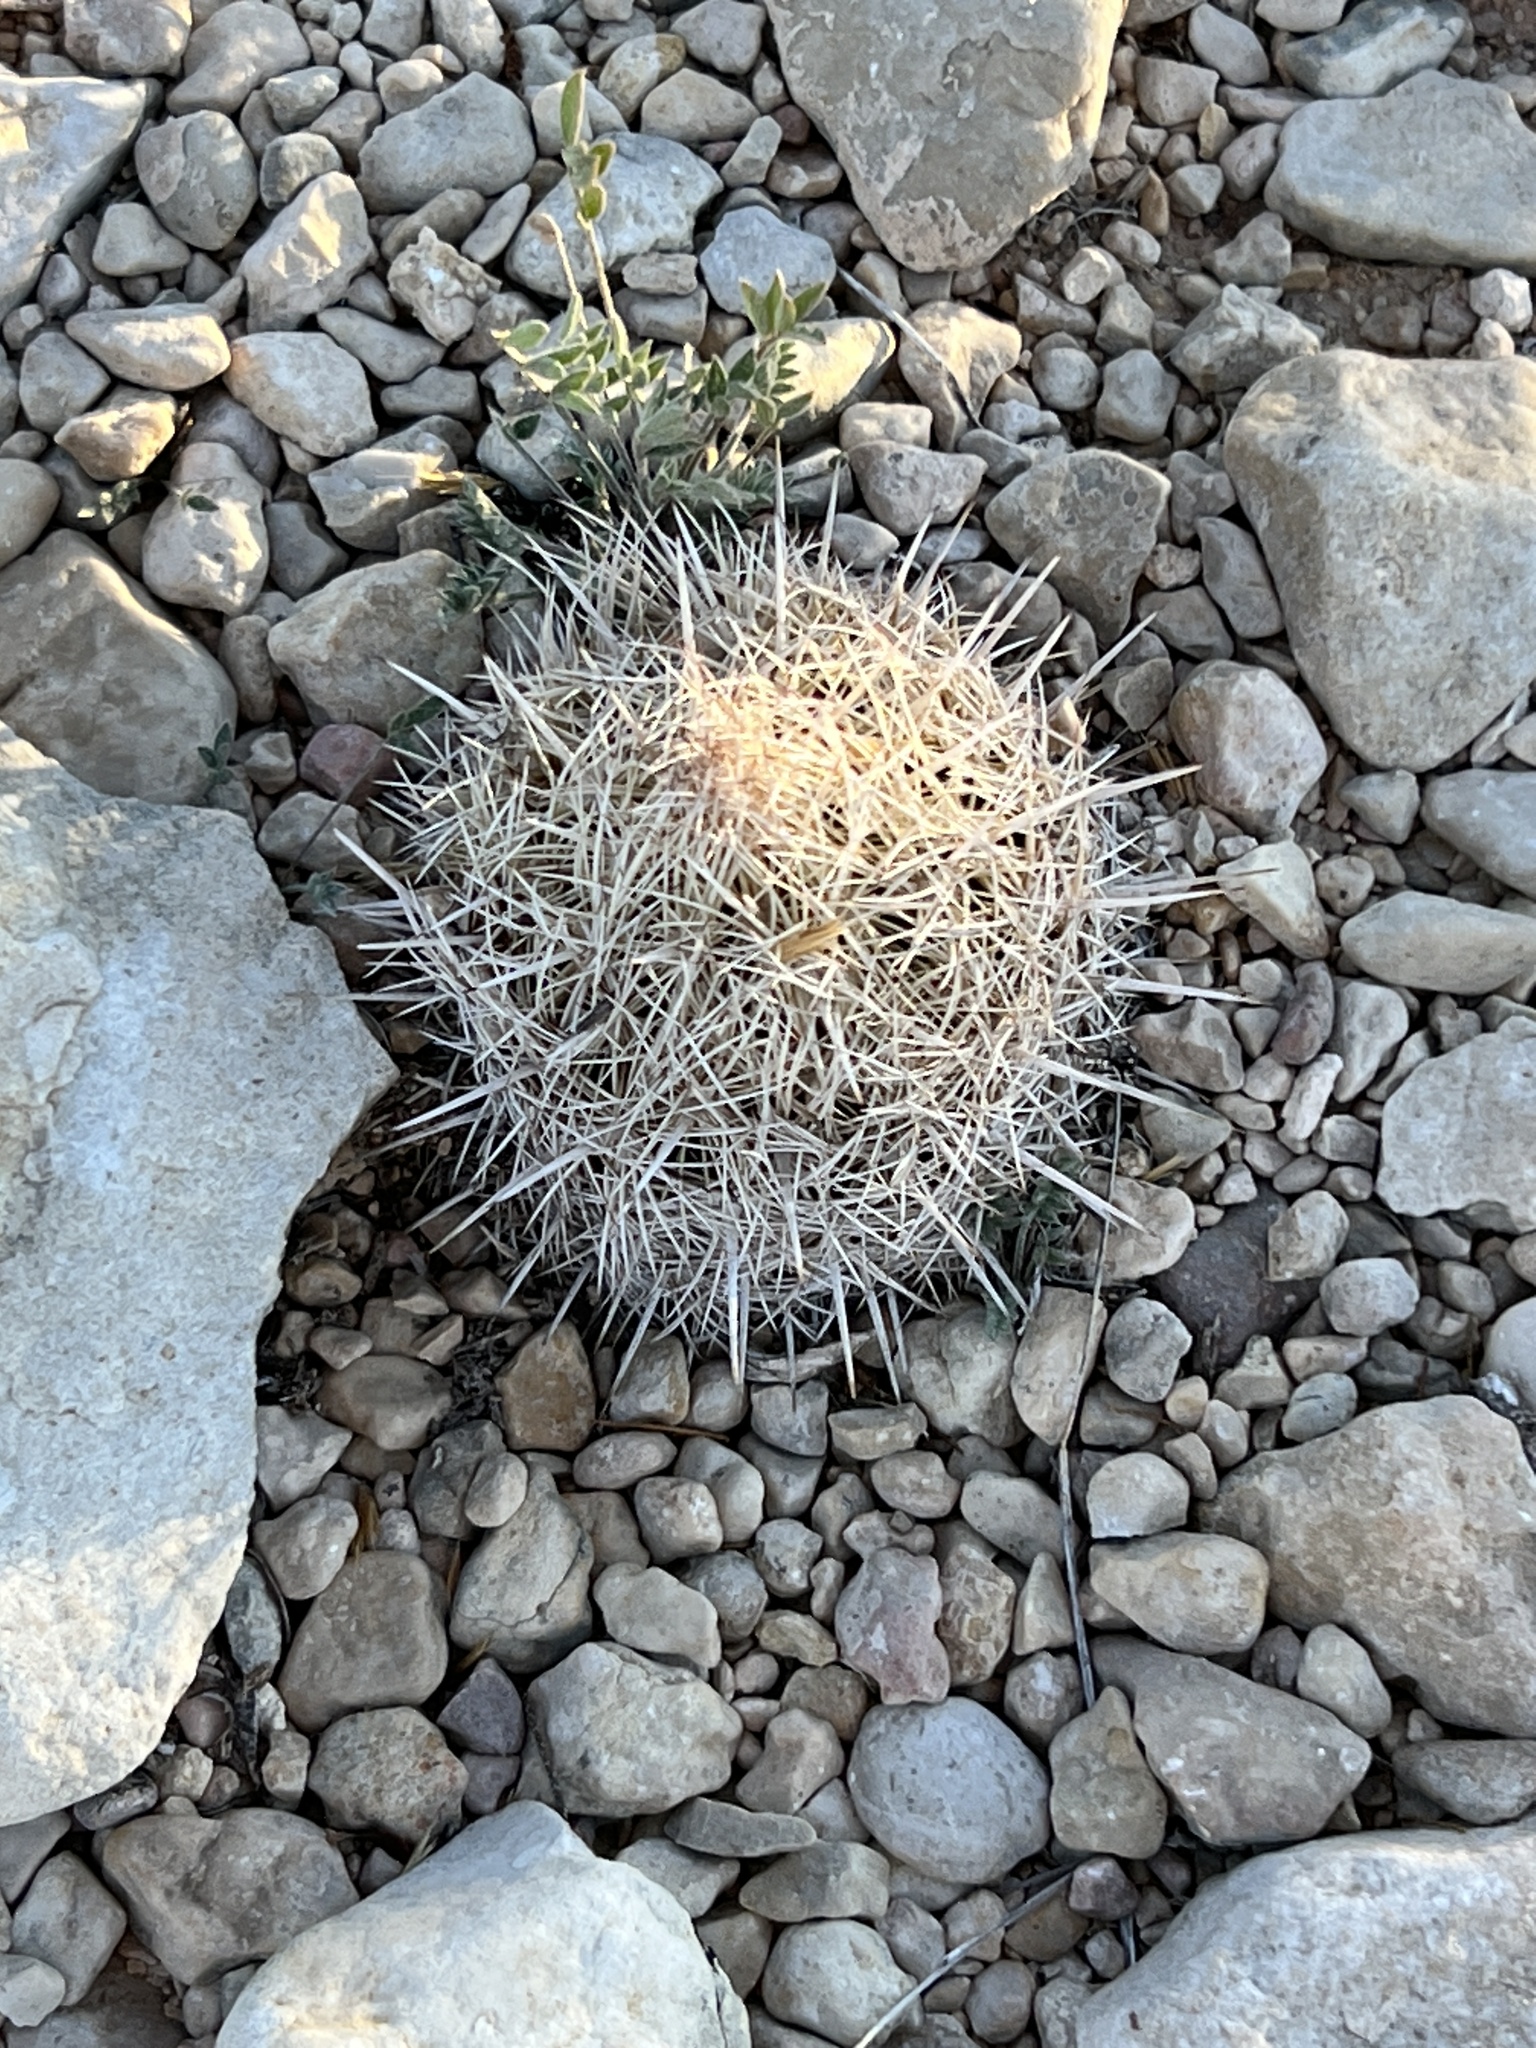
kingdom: Plantae
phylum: Tracheophyta
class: Magnoliopsida
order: Caryophyllales
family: Cactaceae
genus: Coryphantha
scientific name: Coryphantha echinus
